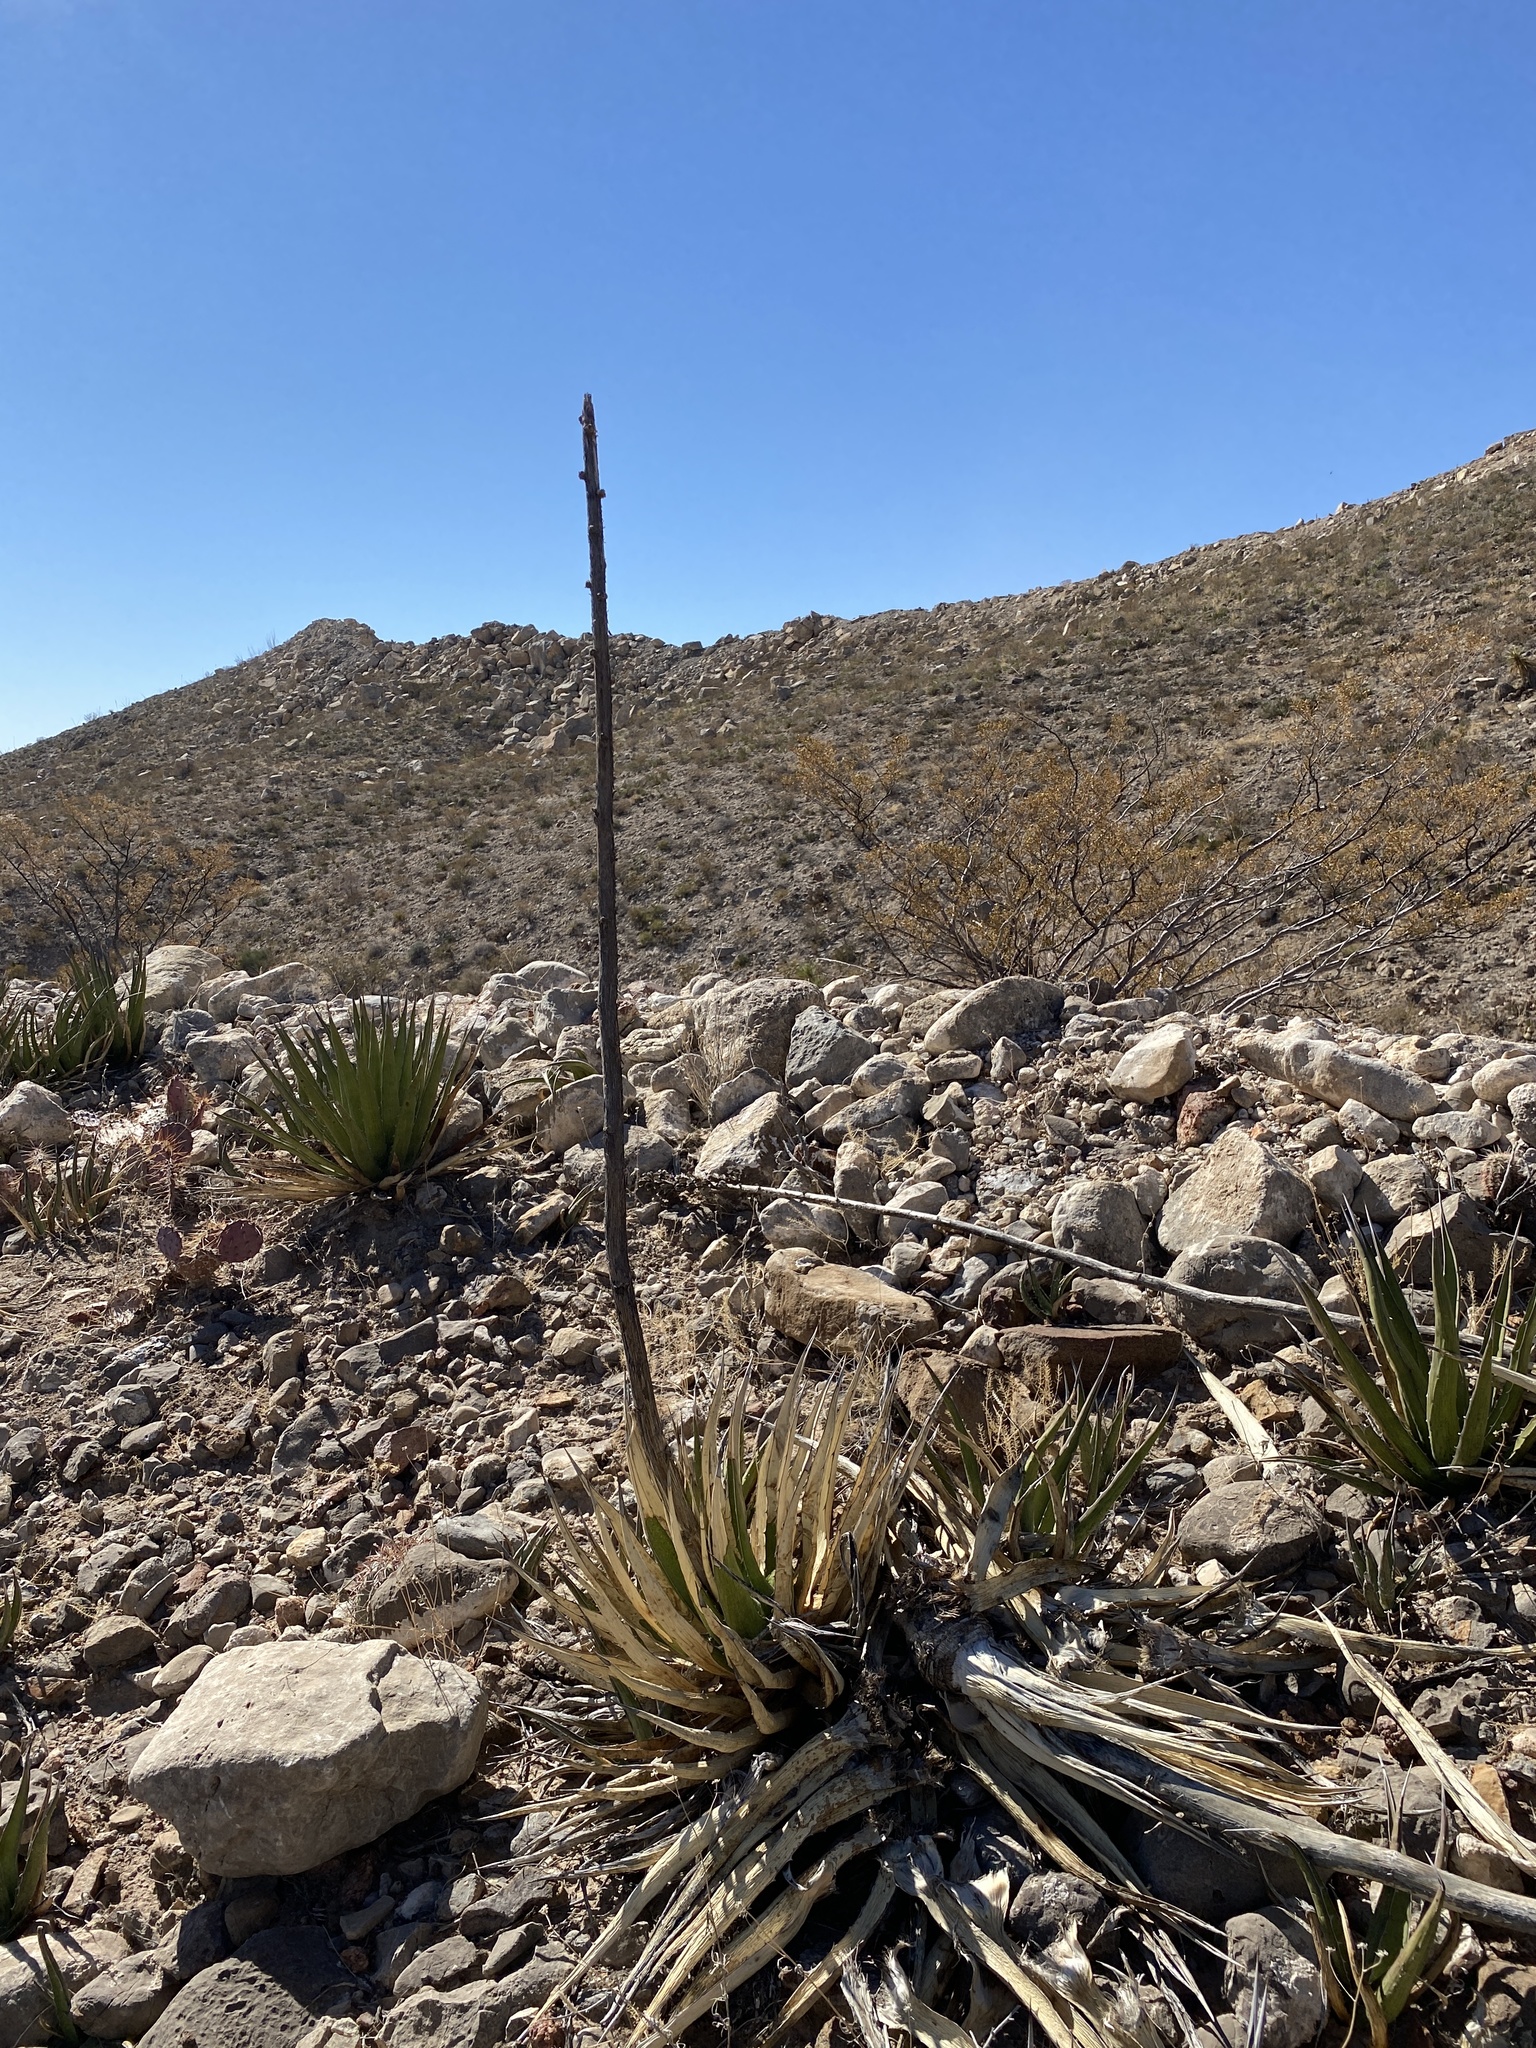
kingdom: Plantae
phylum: Tracheophyta
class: Liliopsida
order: Asparagales
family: Asparagaceae
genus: Agave
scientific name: Agave lechuguilla
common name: Lecheguilla agave
